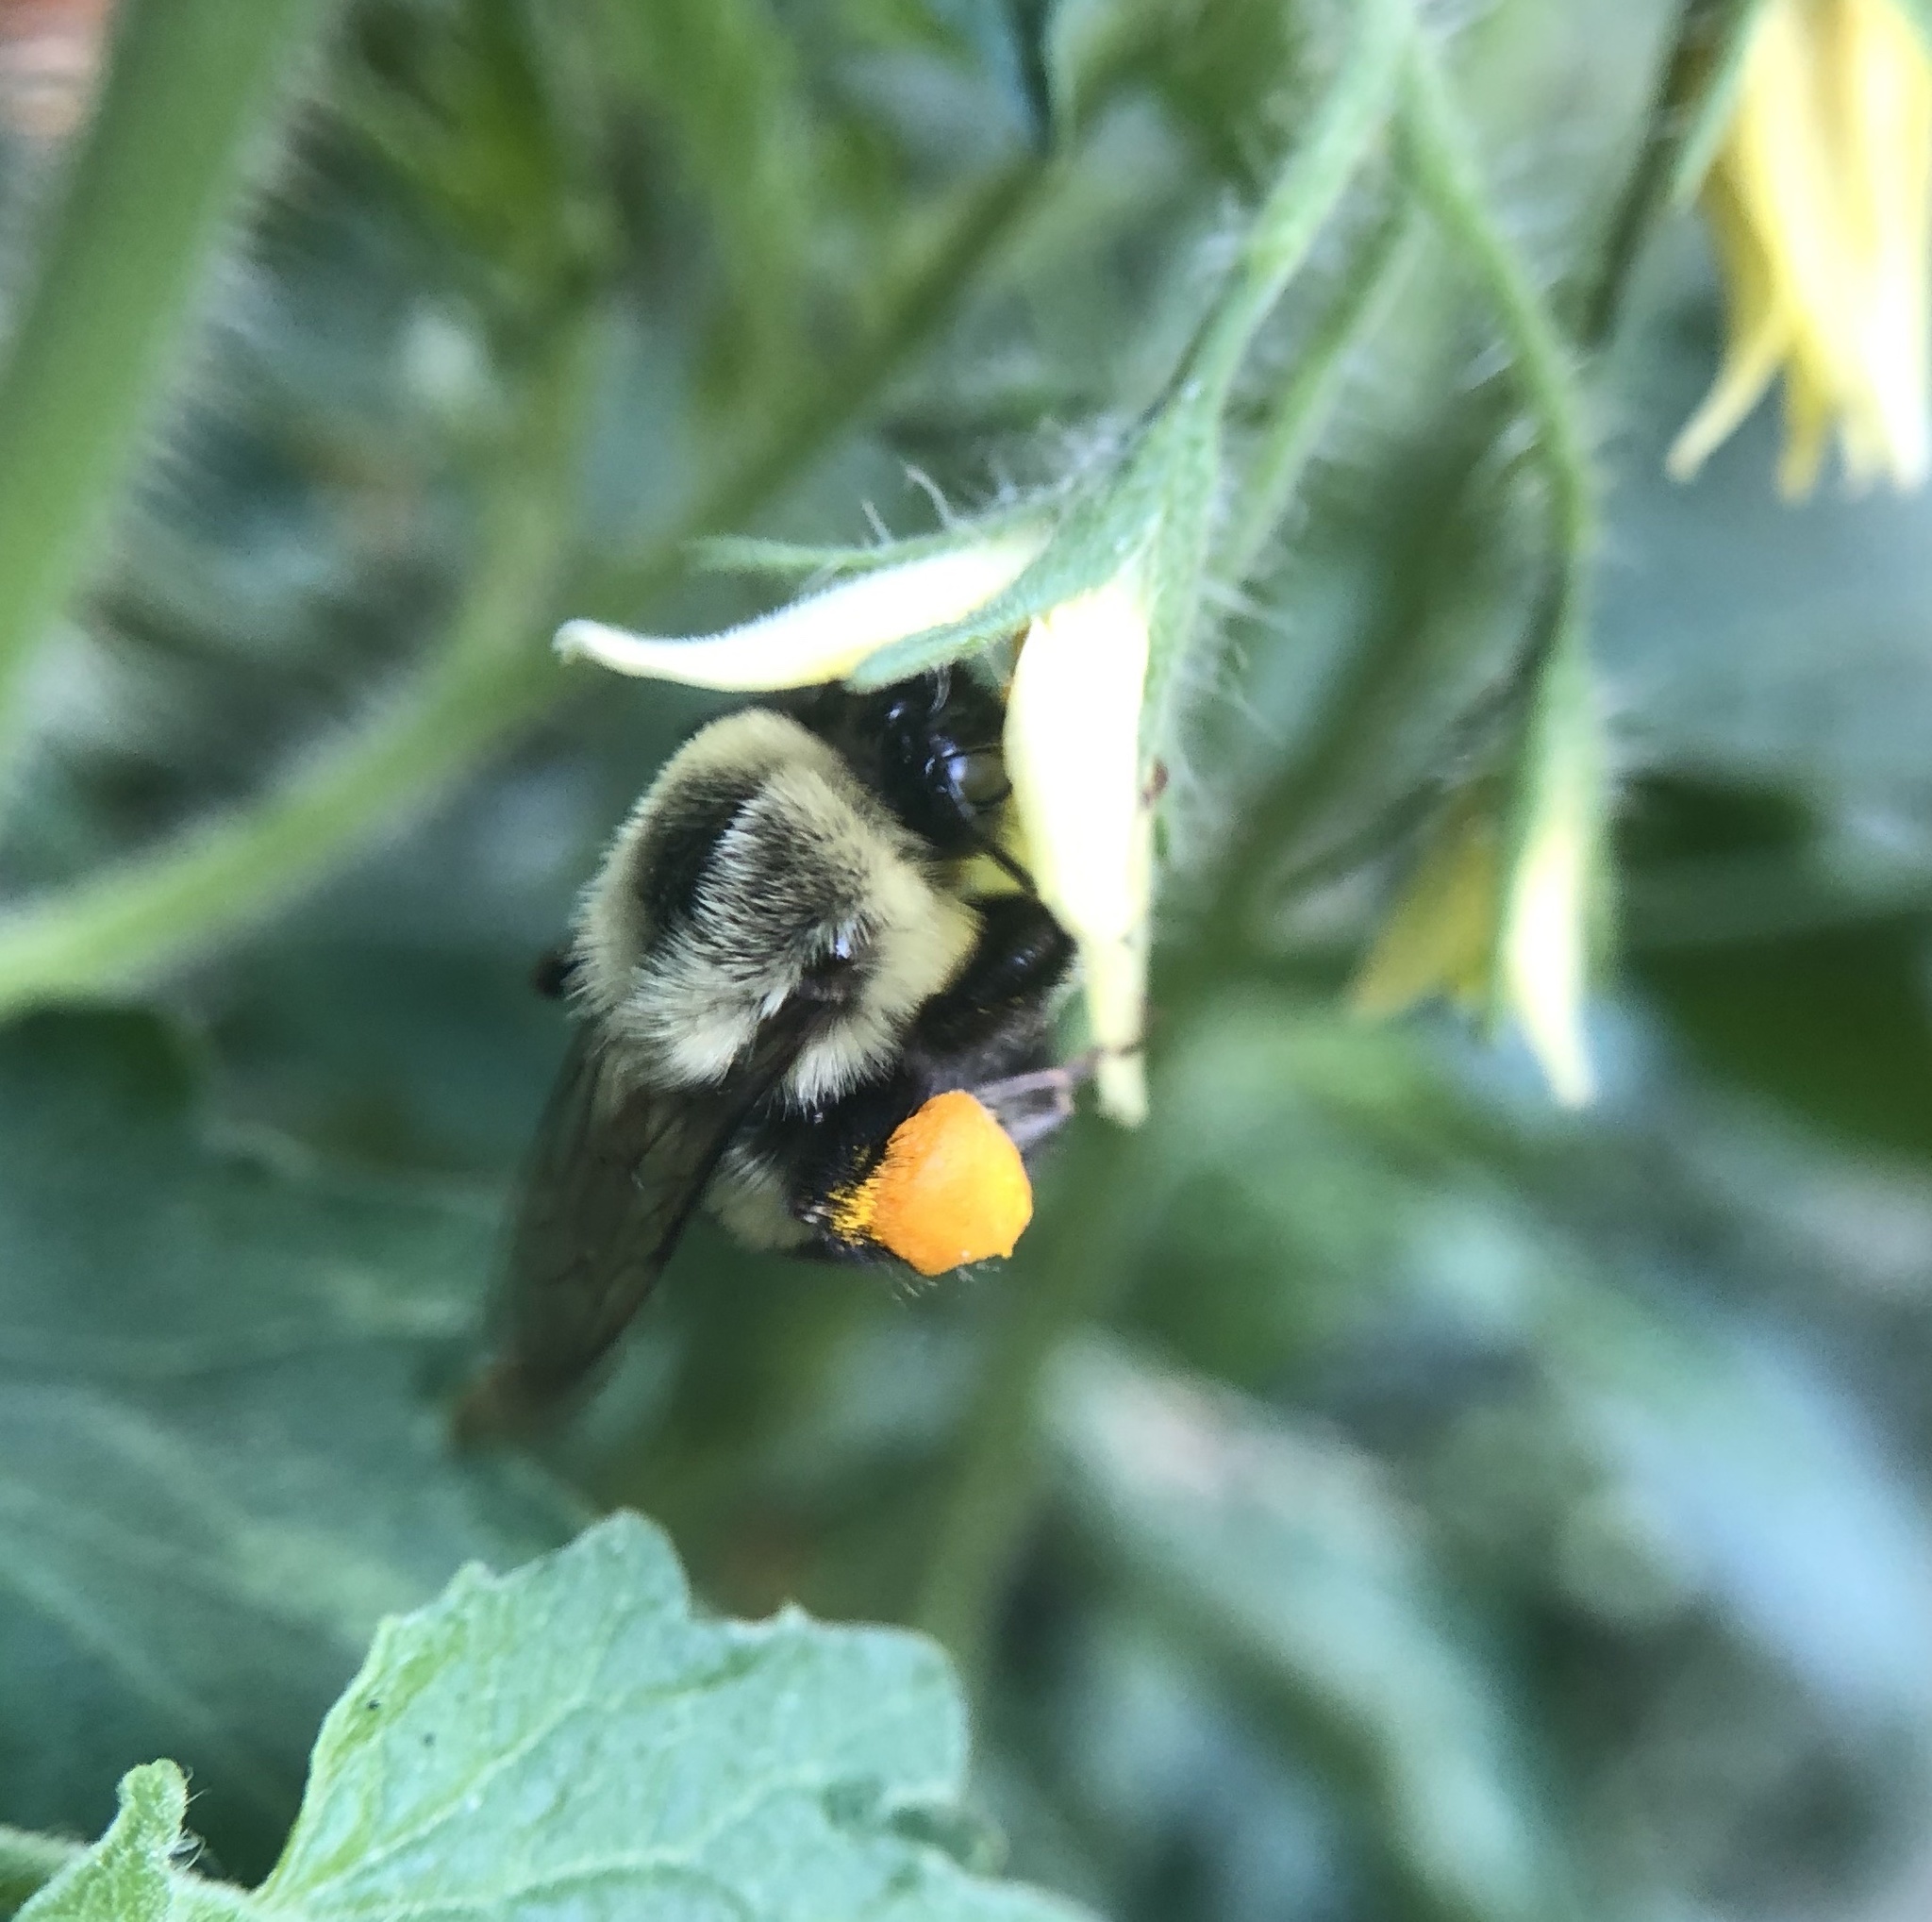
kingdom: Animalia
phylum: Arthropoda
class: Insecta
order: Hymenoptera
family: Apidae
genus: Bombus
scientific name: Bombus impatiens
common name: Common eastern bumble bee
